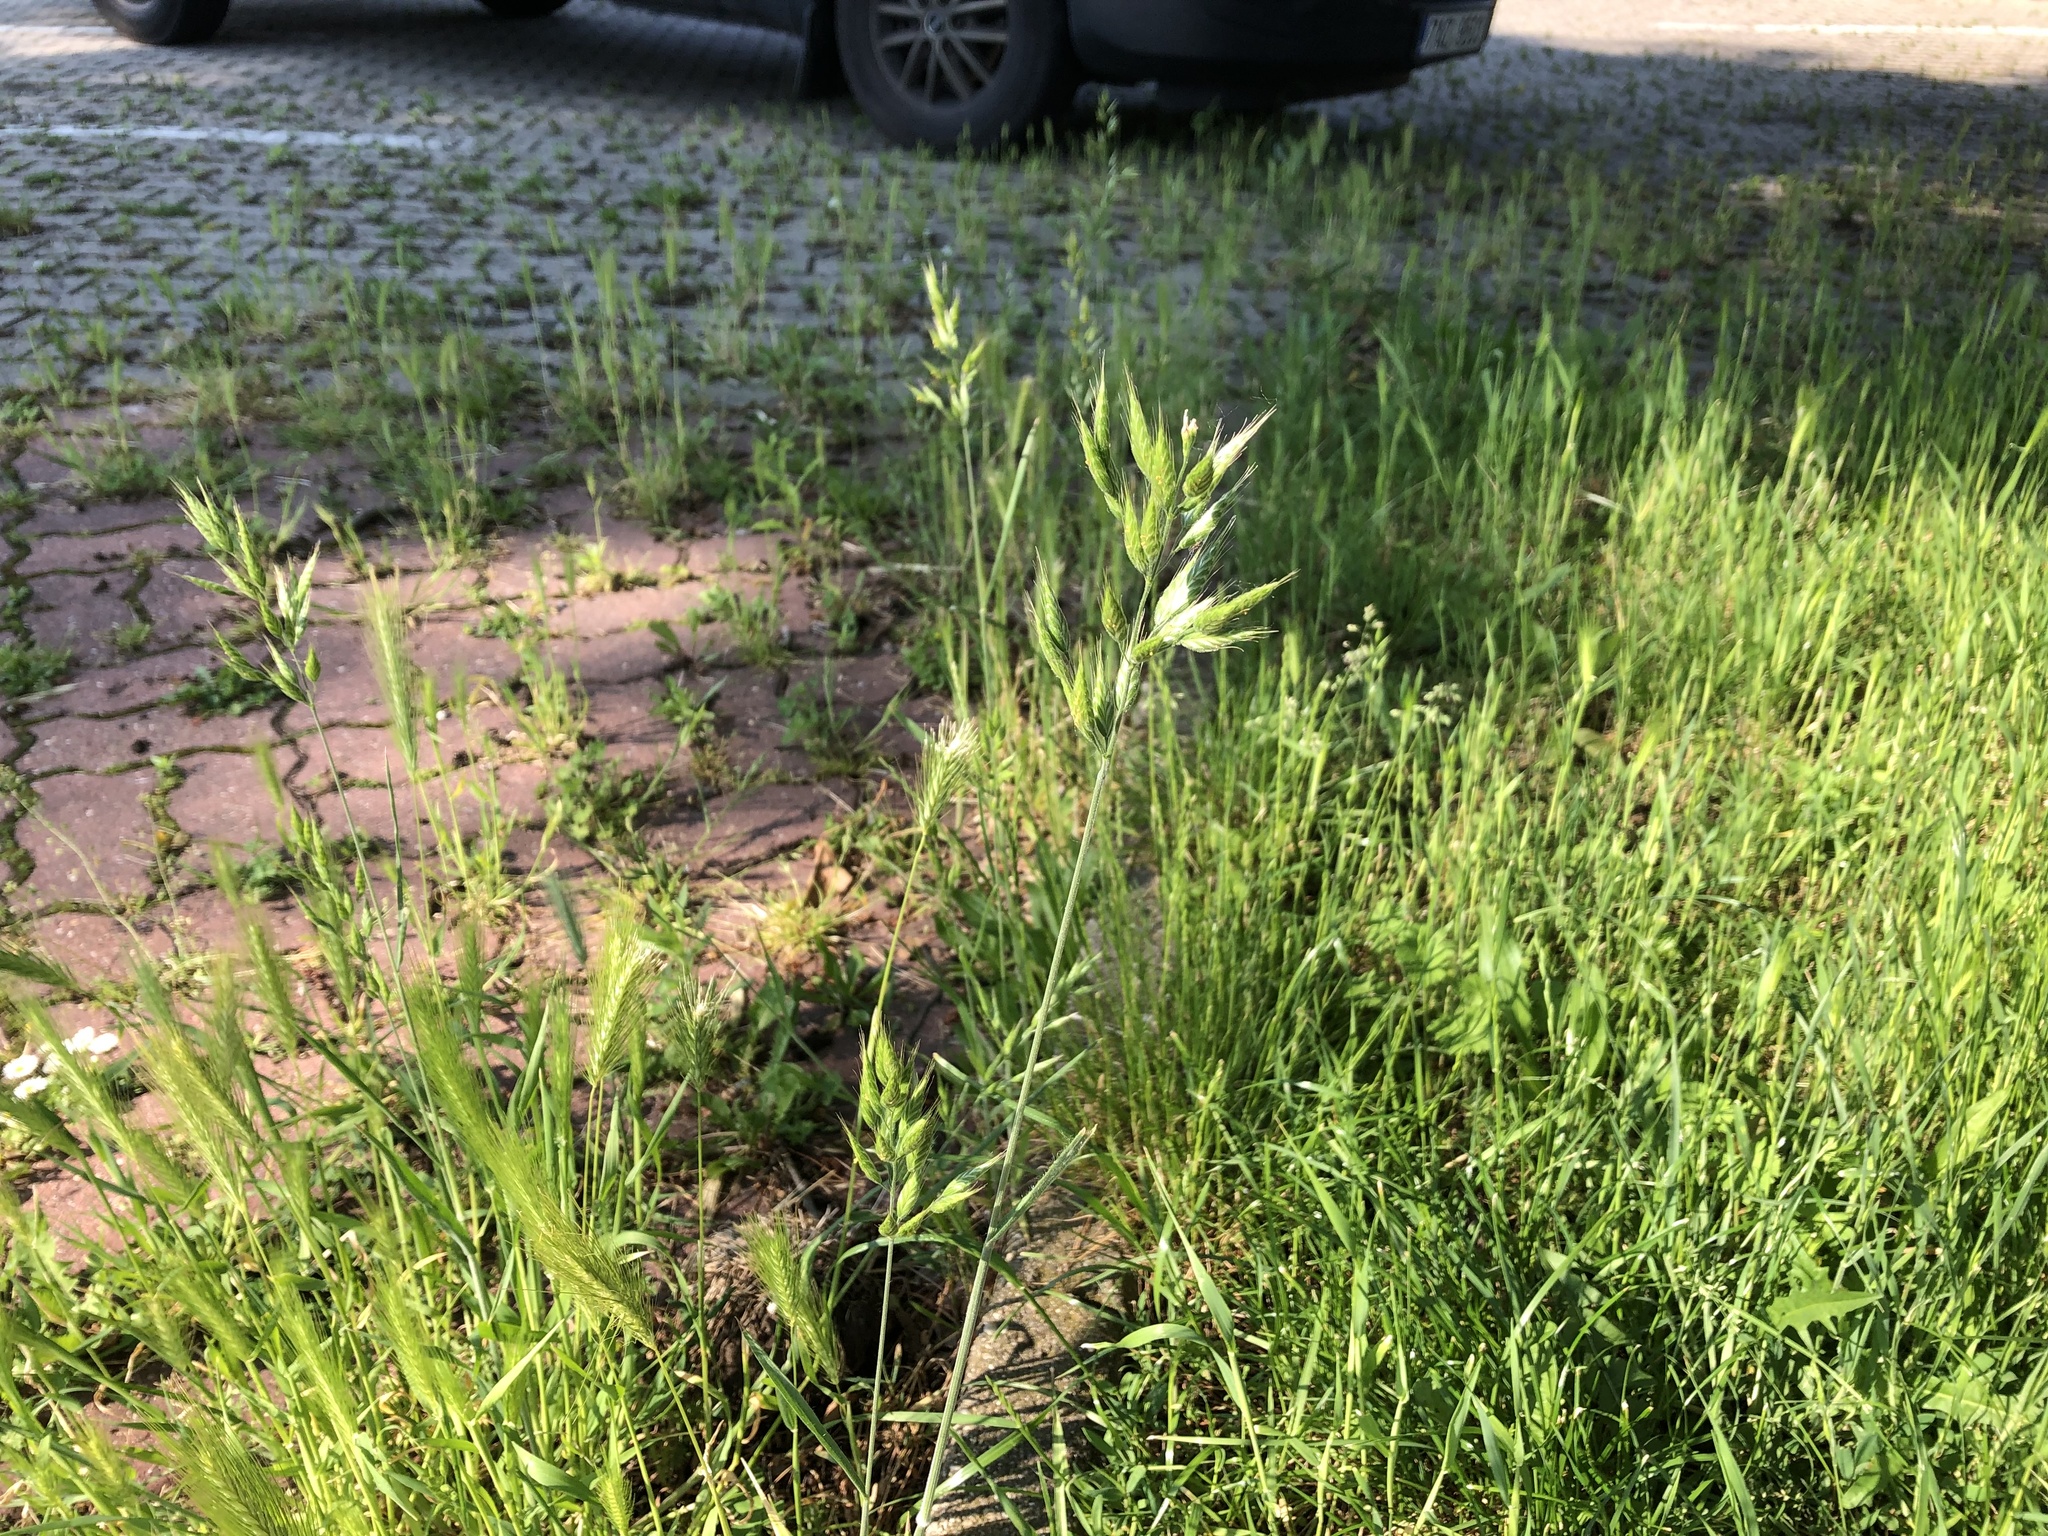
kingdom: Plantae
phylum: Tracheophyta
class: Liliopsida
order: Poales
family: Poaceae
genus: Bromus
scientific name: Bromus hordeaceus
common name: Soft brome
